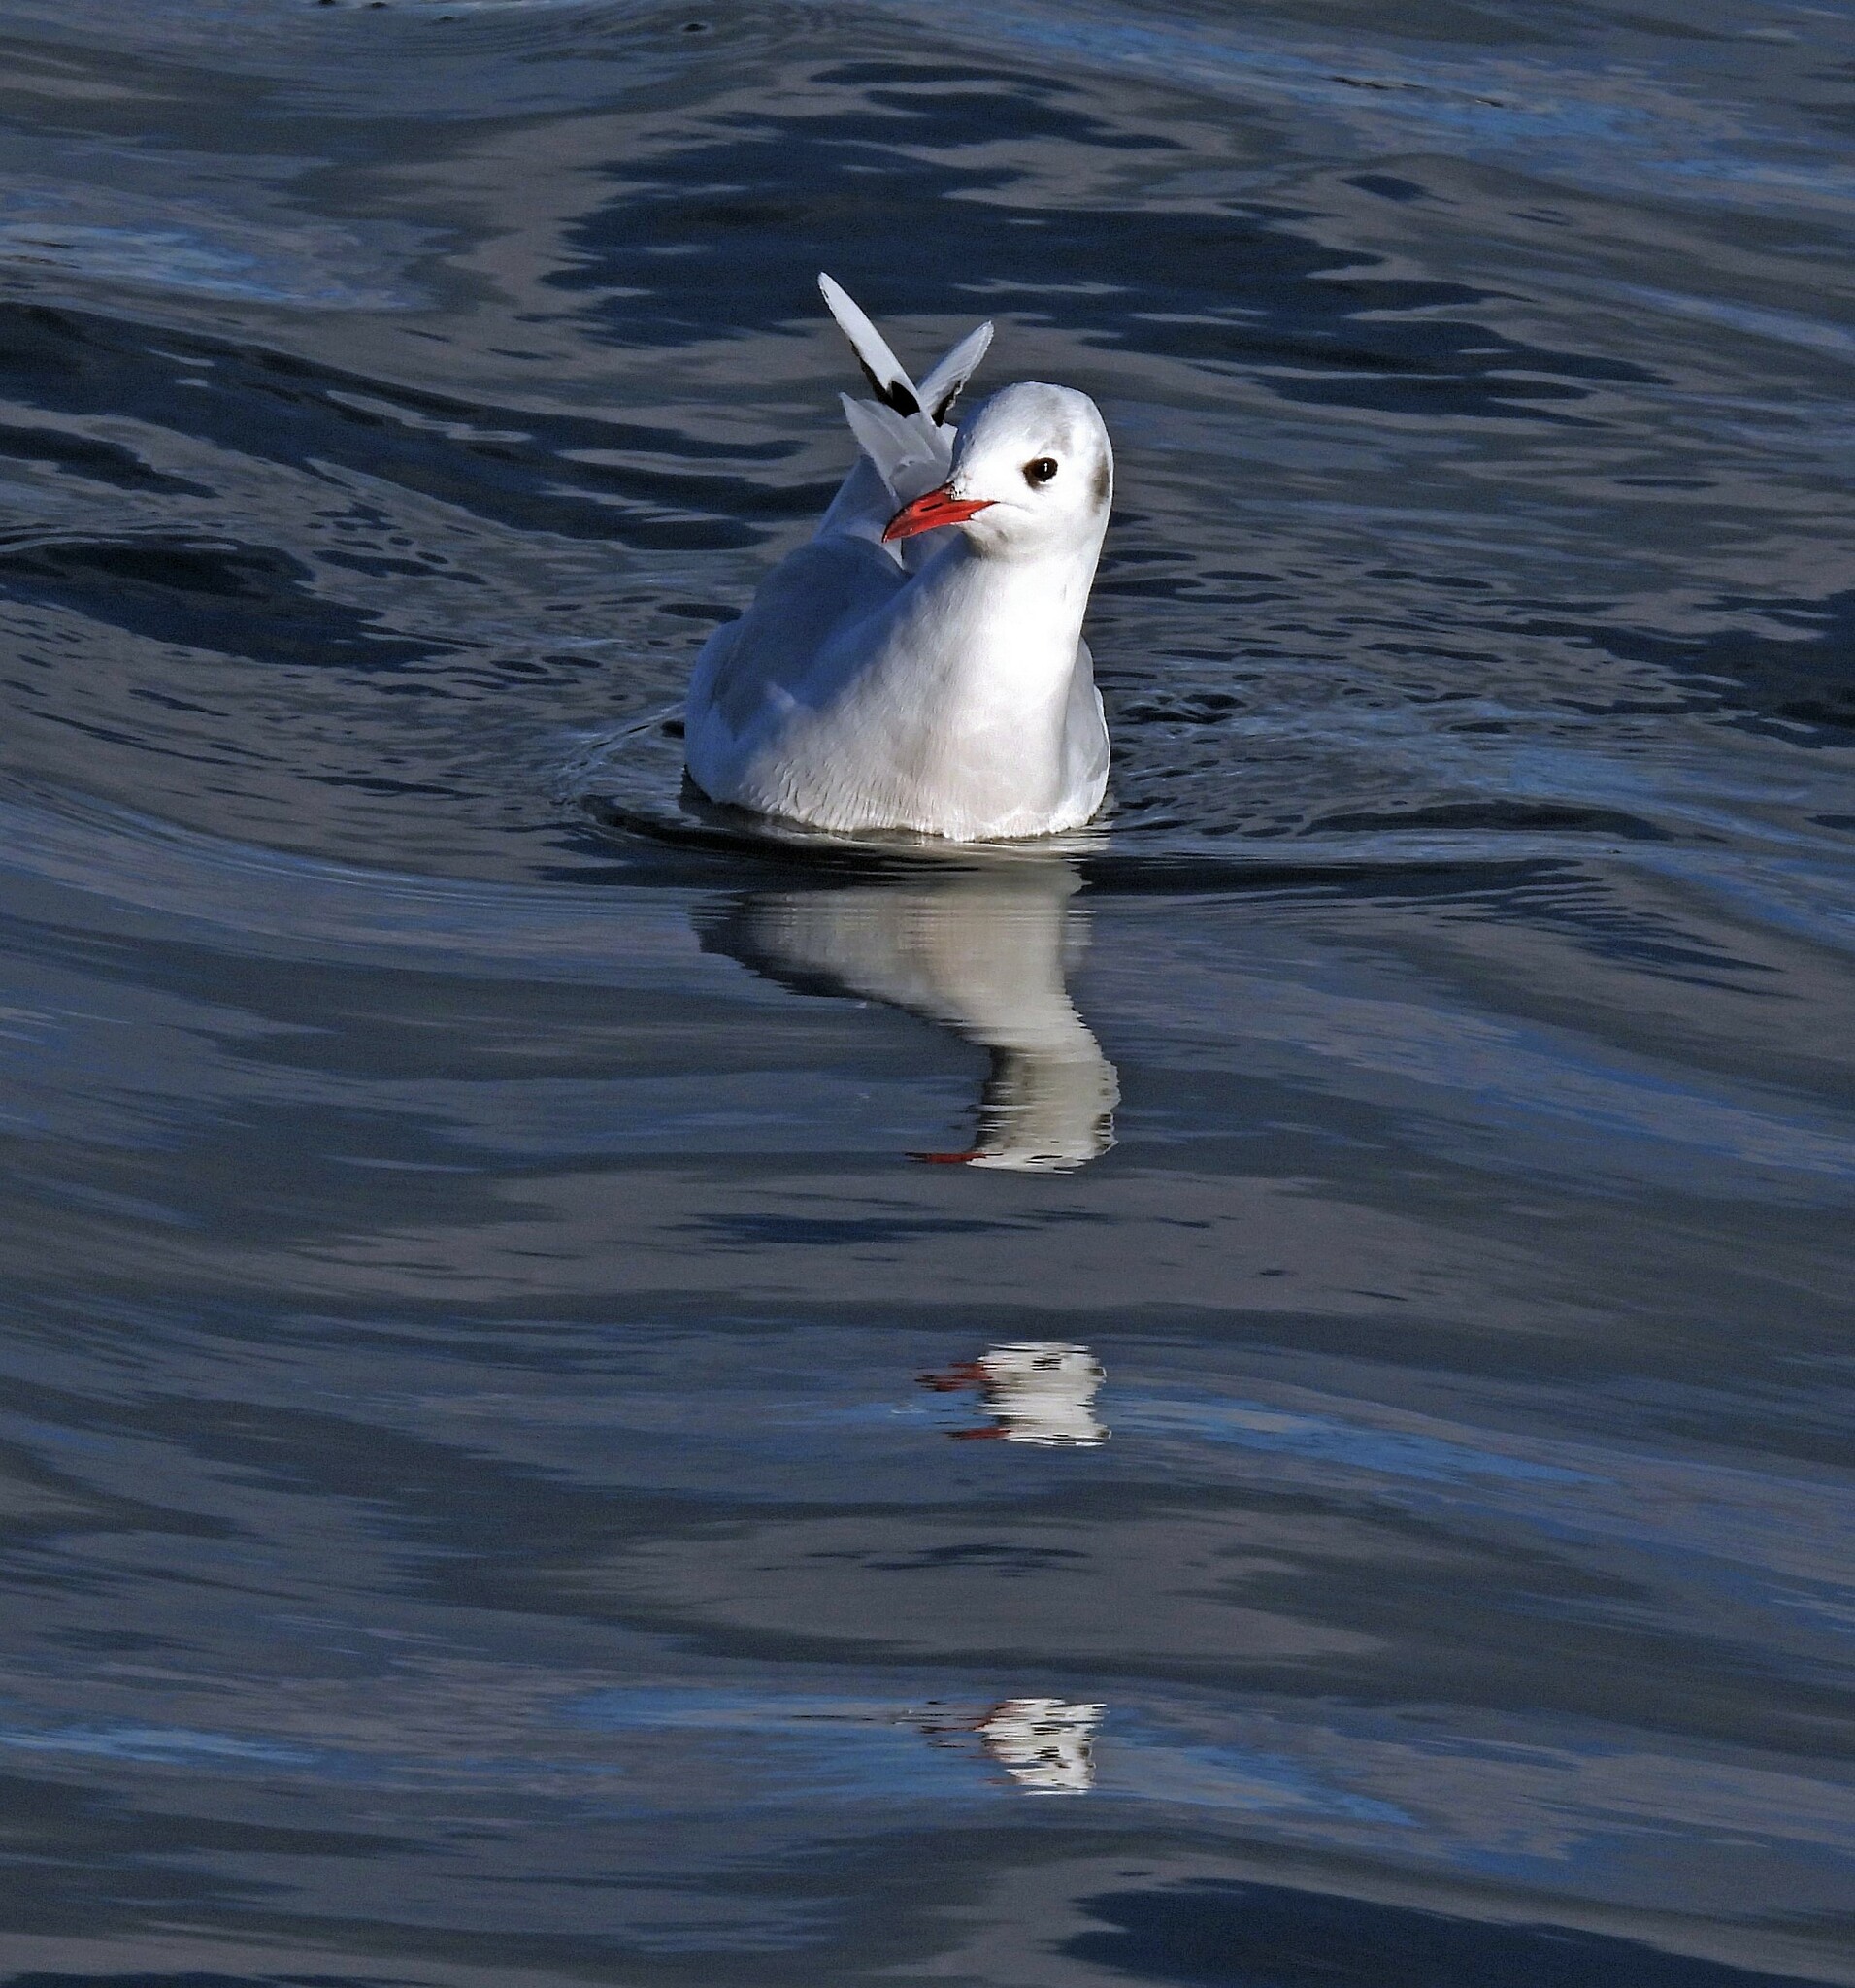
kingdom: Animalia
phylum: Chordata
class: Aves
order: Charadriiformes
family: Laridae
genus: Chroicocephalus
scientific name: Chroicocephalus maculipennis
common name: Brown-hooded gull
